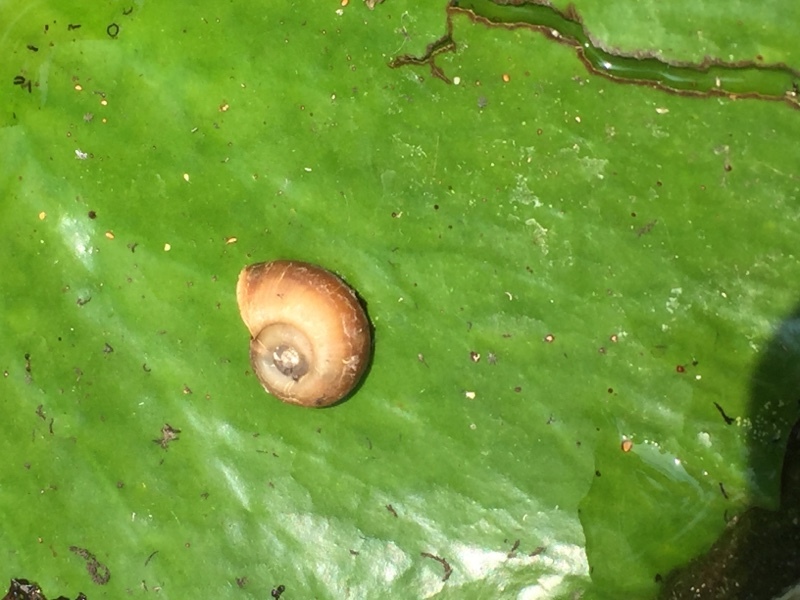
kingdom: Animalia
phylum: Mollusca
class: Gastropoda
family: Bulinidae
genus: Indoplanorbis
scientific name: Indoplanorbis exustus
